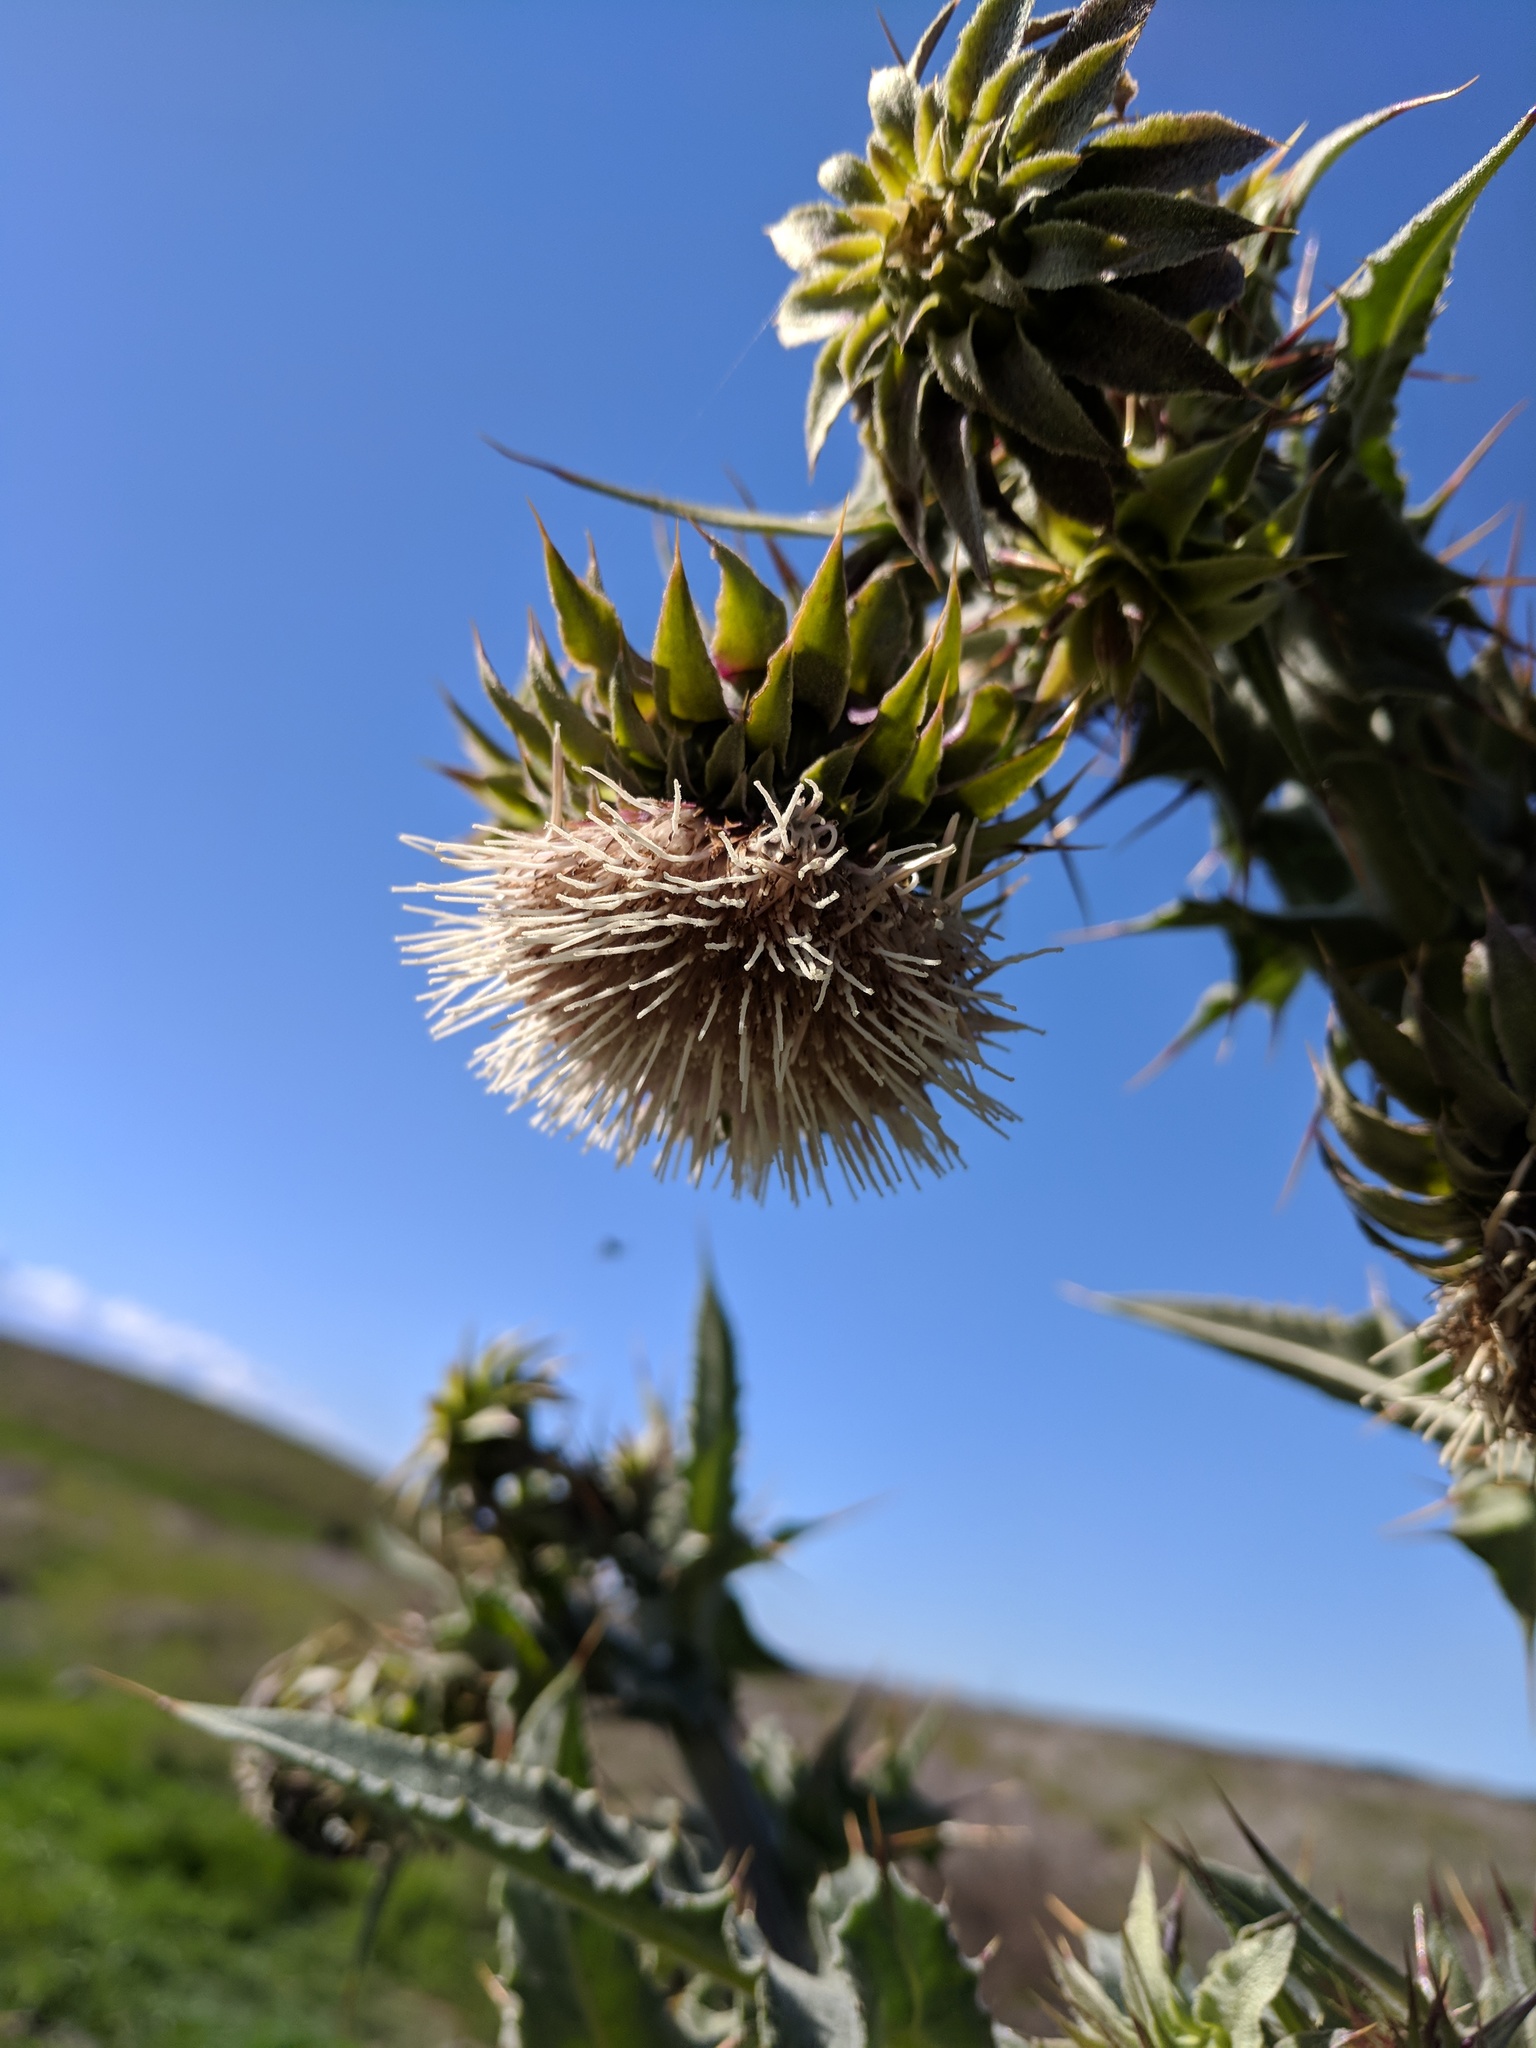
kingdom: Plantae
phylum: Tracheophyta
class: Magnoliopsida
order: Asterales
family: Asteraceae
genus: Cirsium
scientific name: Cirsium fontinale
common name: Fountain thistle
